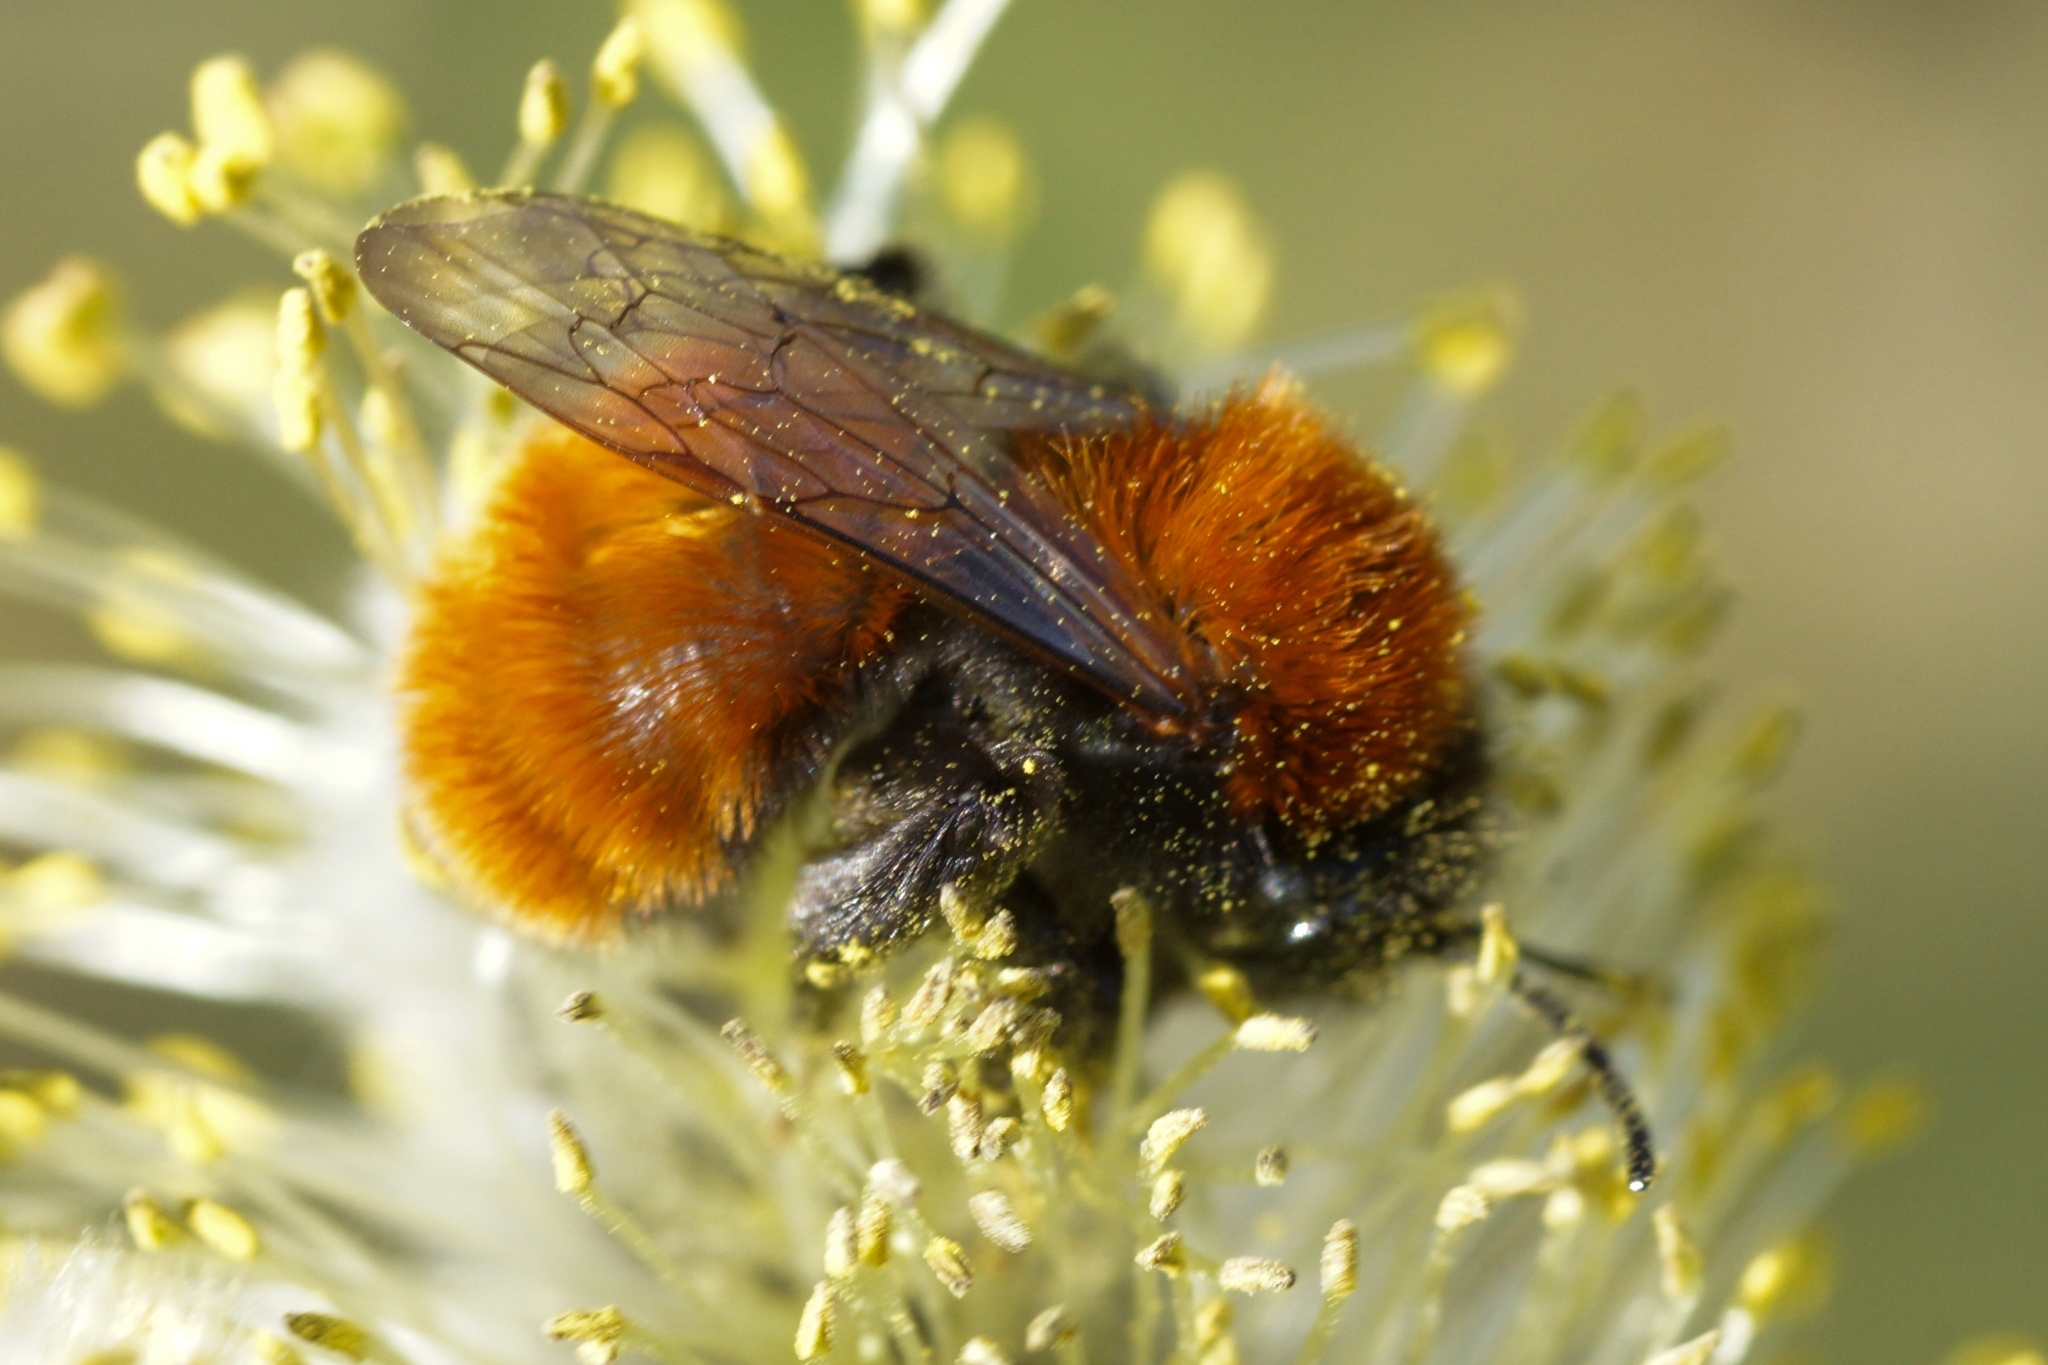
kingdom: Animalia
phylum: Arthropoda
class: Insecta
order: Hymenoptera
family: Andrenidae
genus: Andrena
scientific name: Andrena fulva
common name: Tawny mining bee
